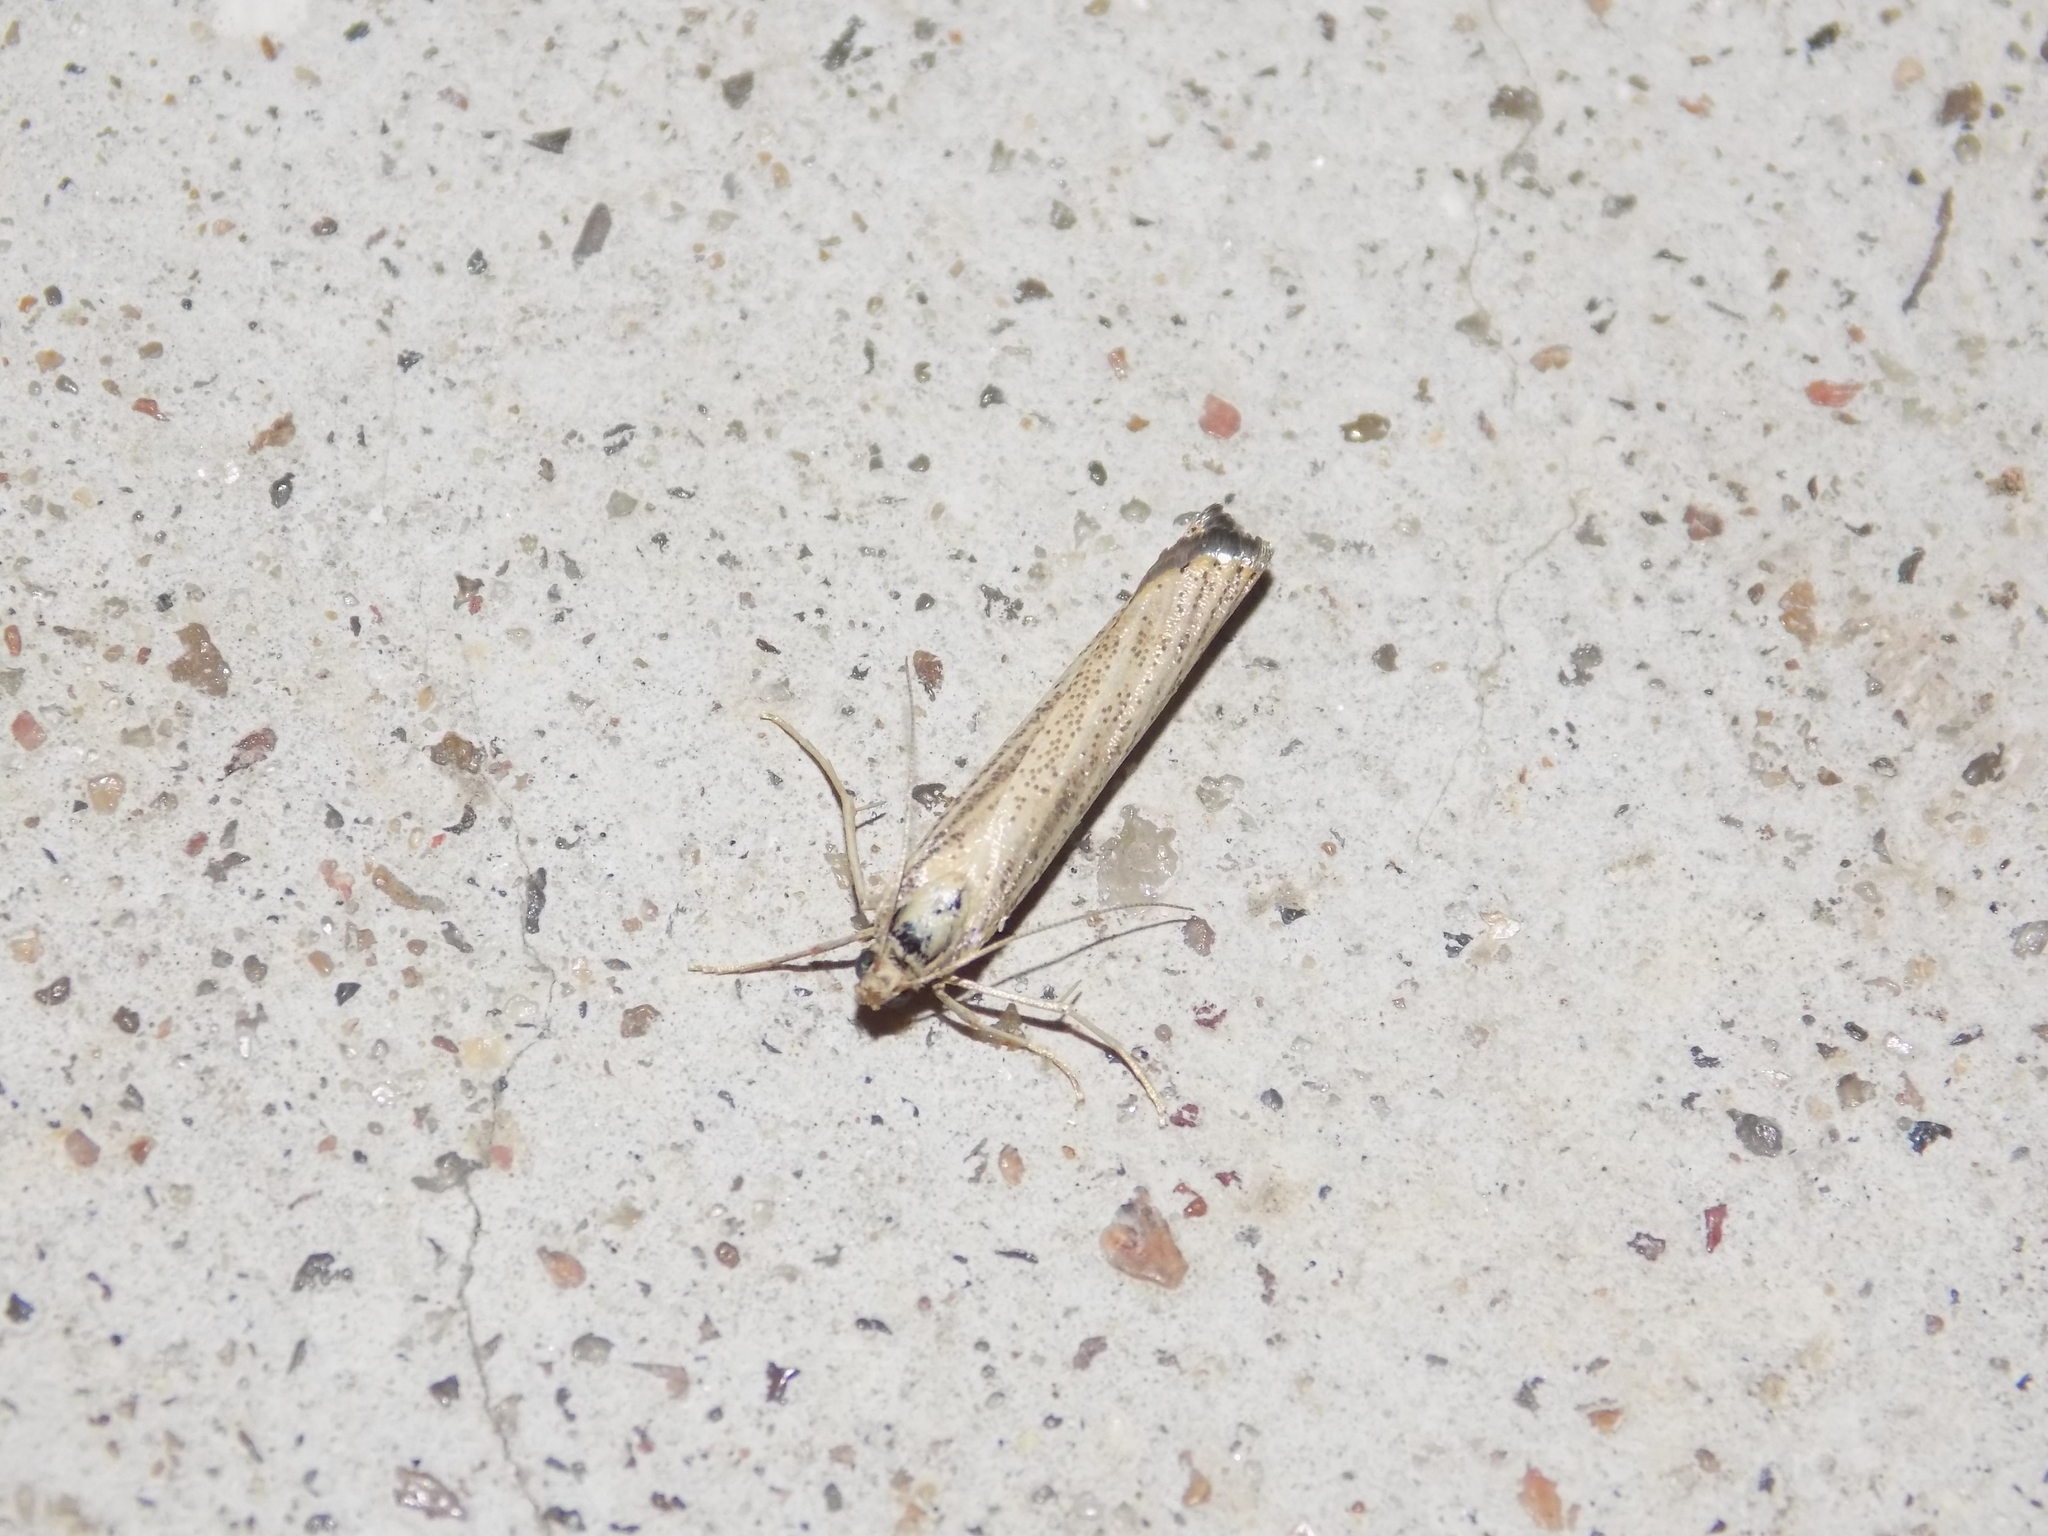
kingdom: Animalia
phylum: Arthropoda
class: Insecta
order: Lepidoptera
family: Crambidae
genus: Agriphila
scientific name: Agriphila vulgivagellus
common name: Vagabond crambus moth
